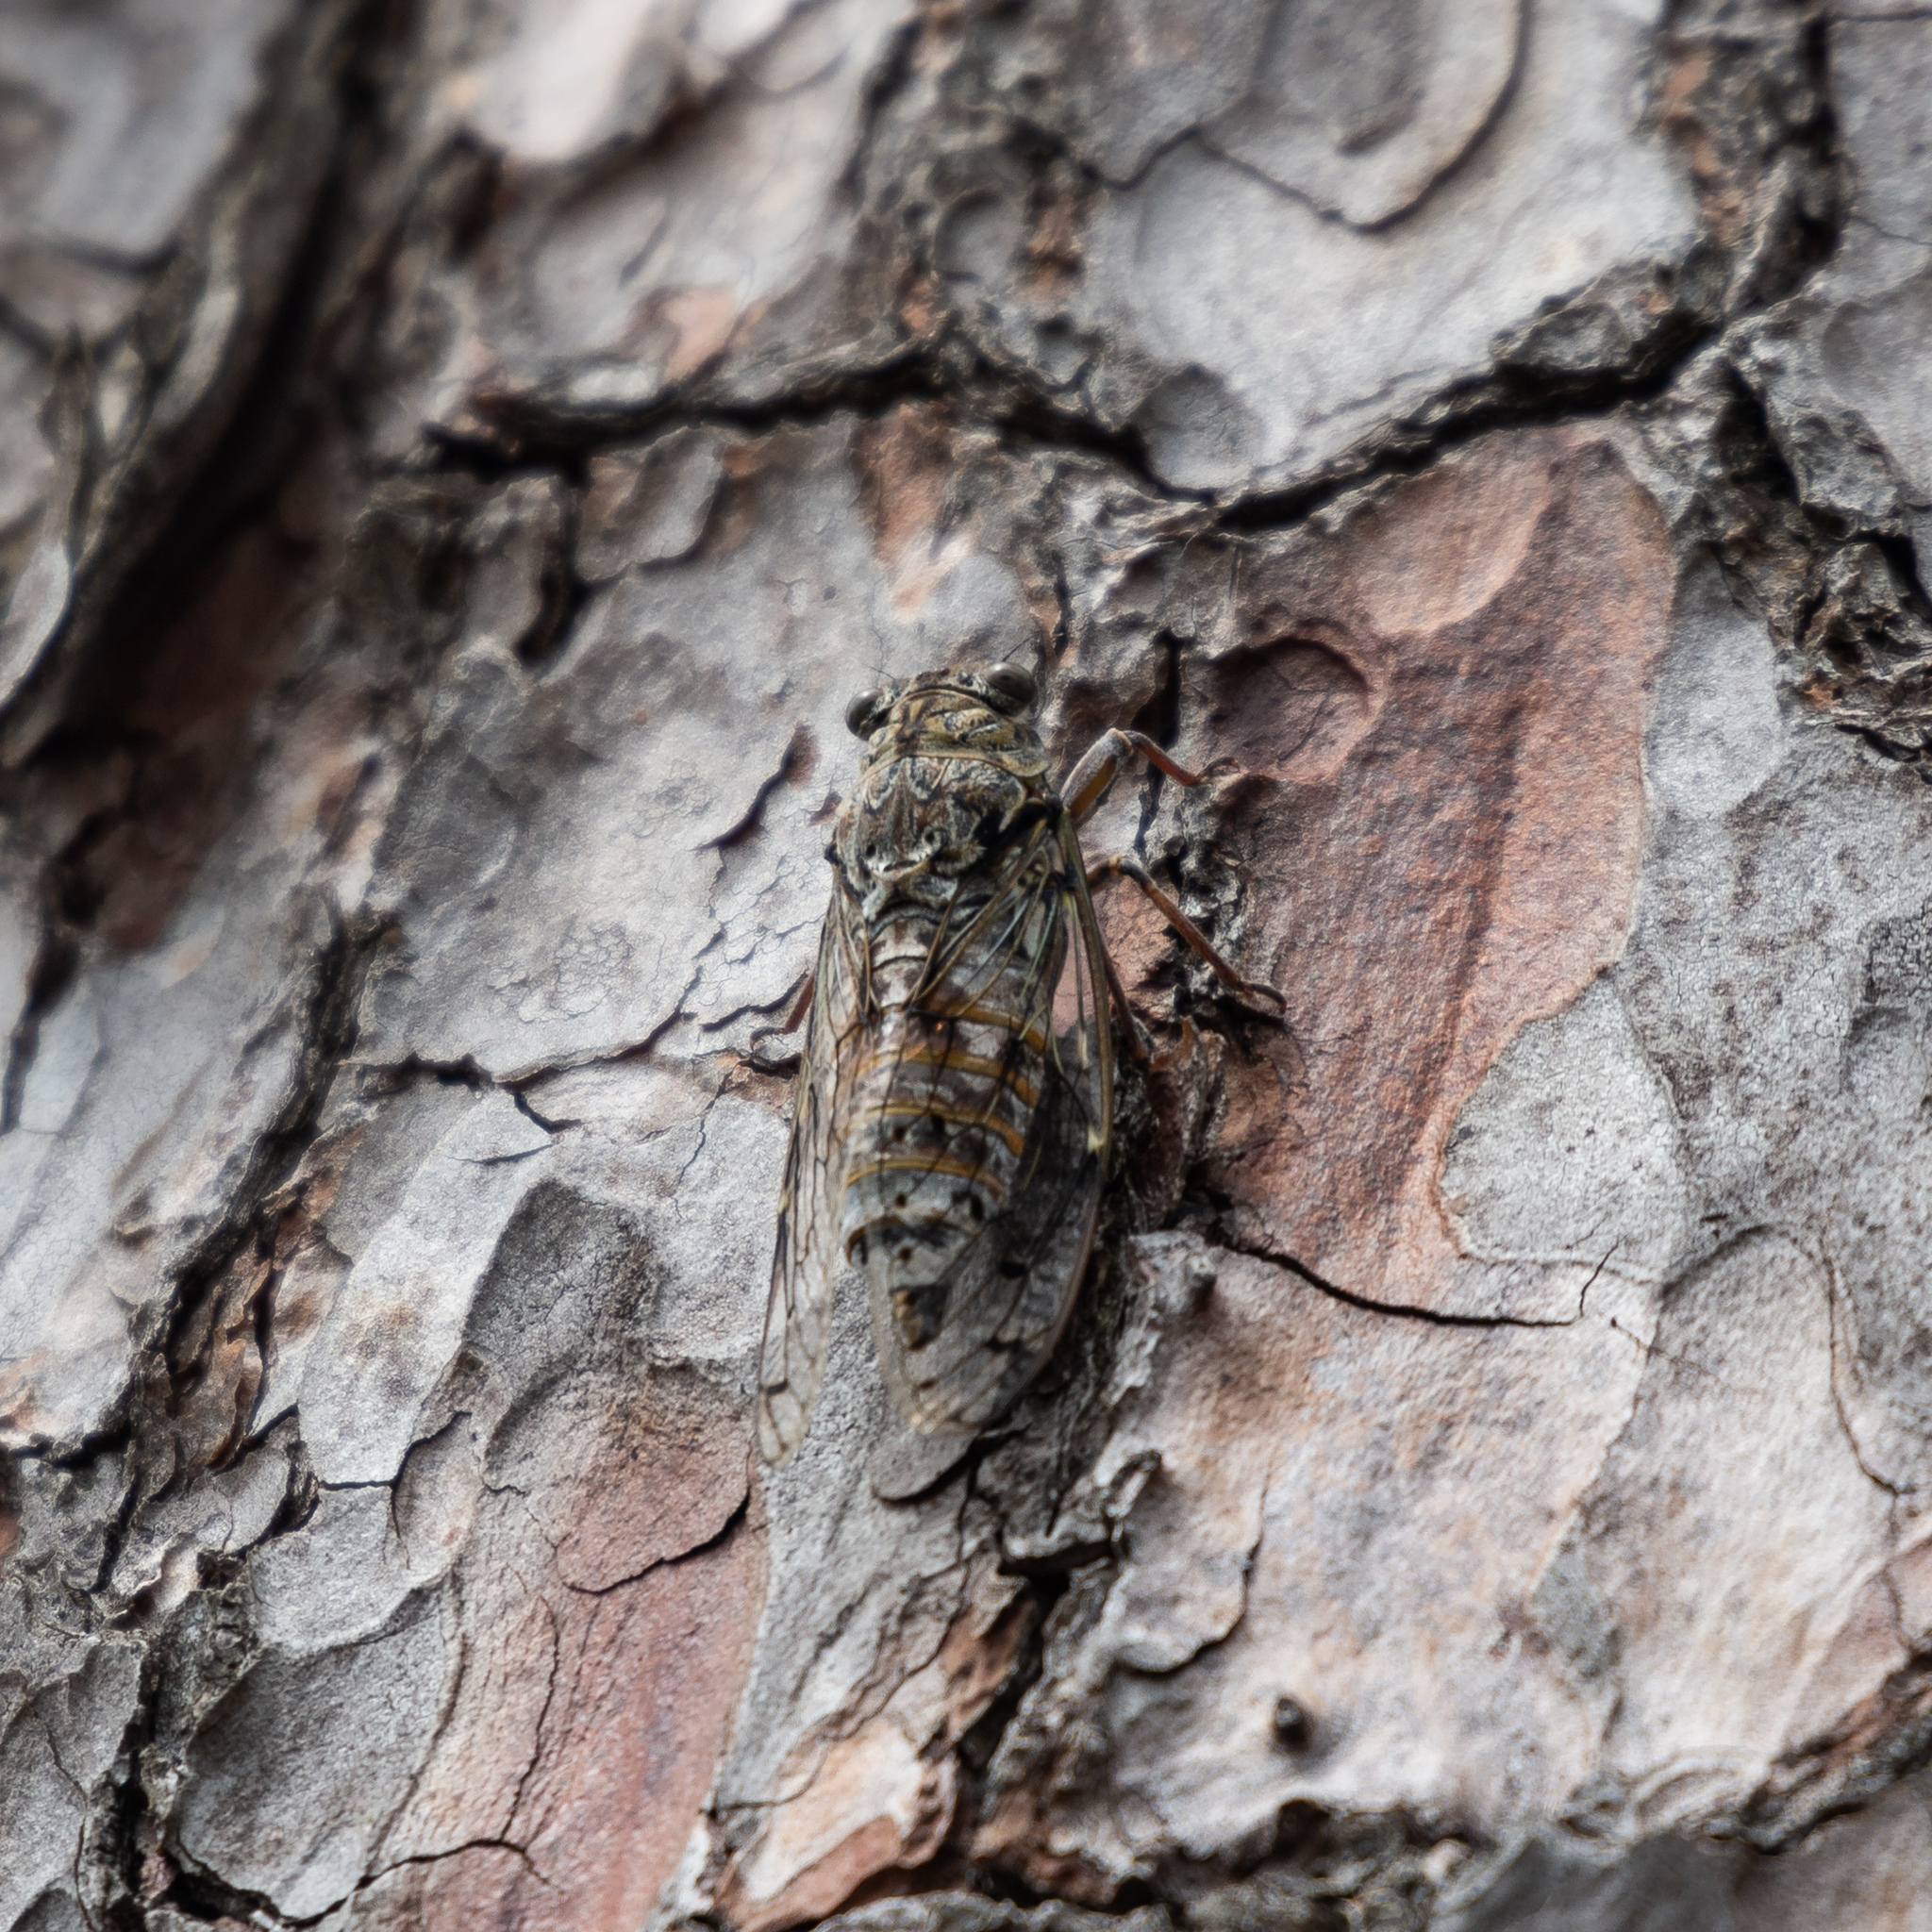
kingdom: Animalia
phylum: Arthropoda
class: Insecta
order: Hemiptera
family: Cicadidae
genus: Cicada
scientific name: Cicada orni
